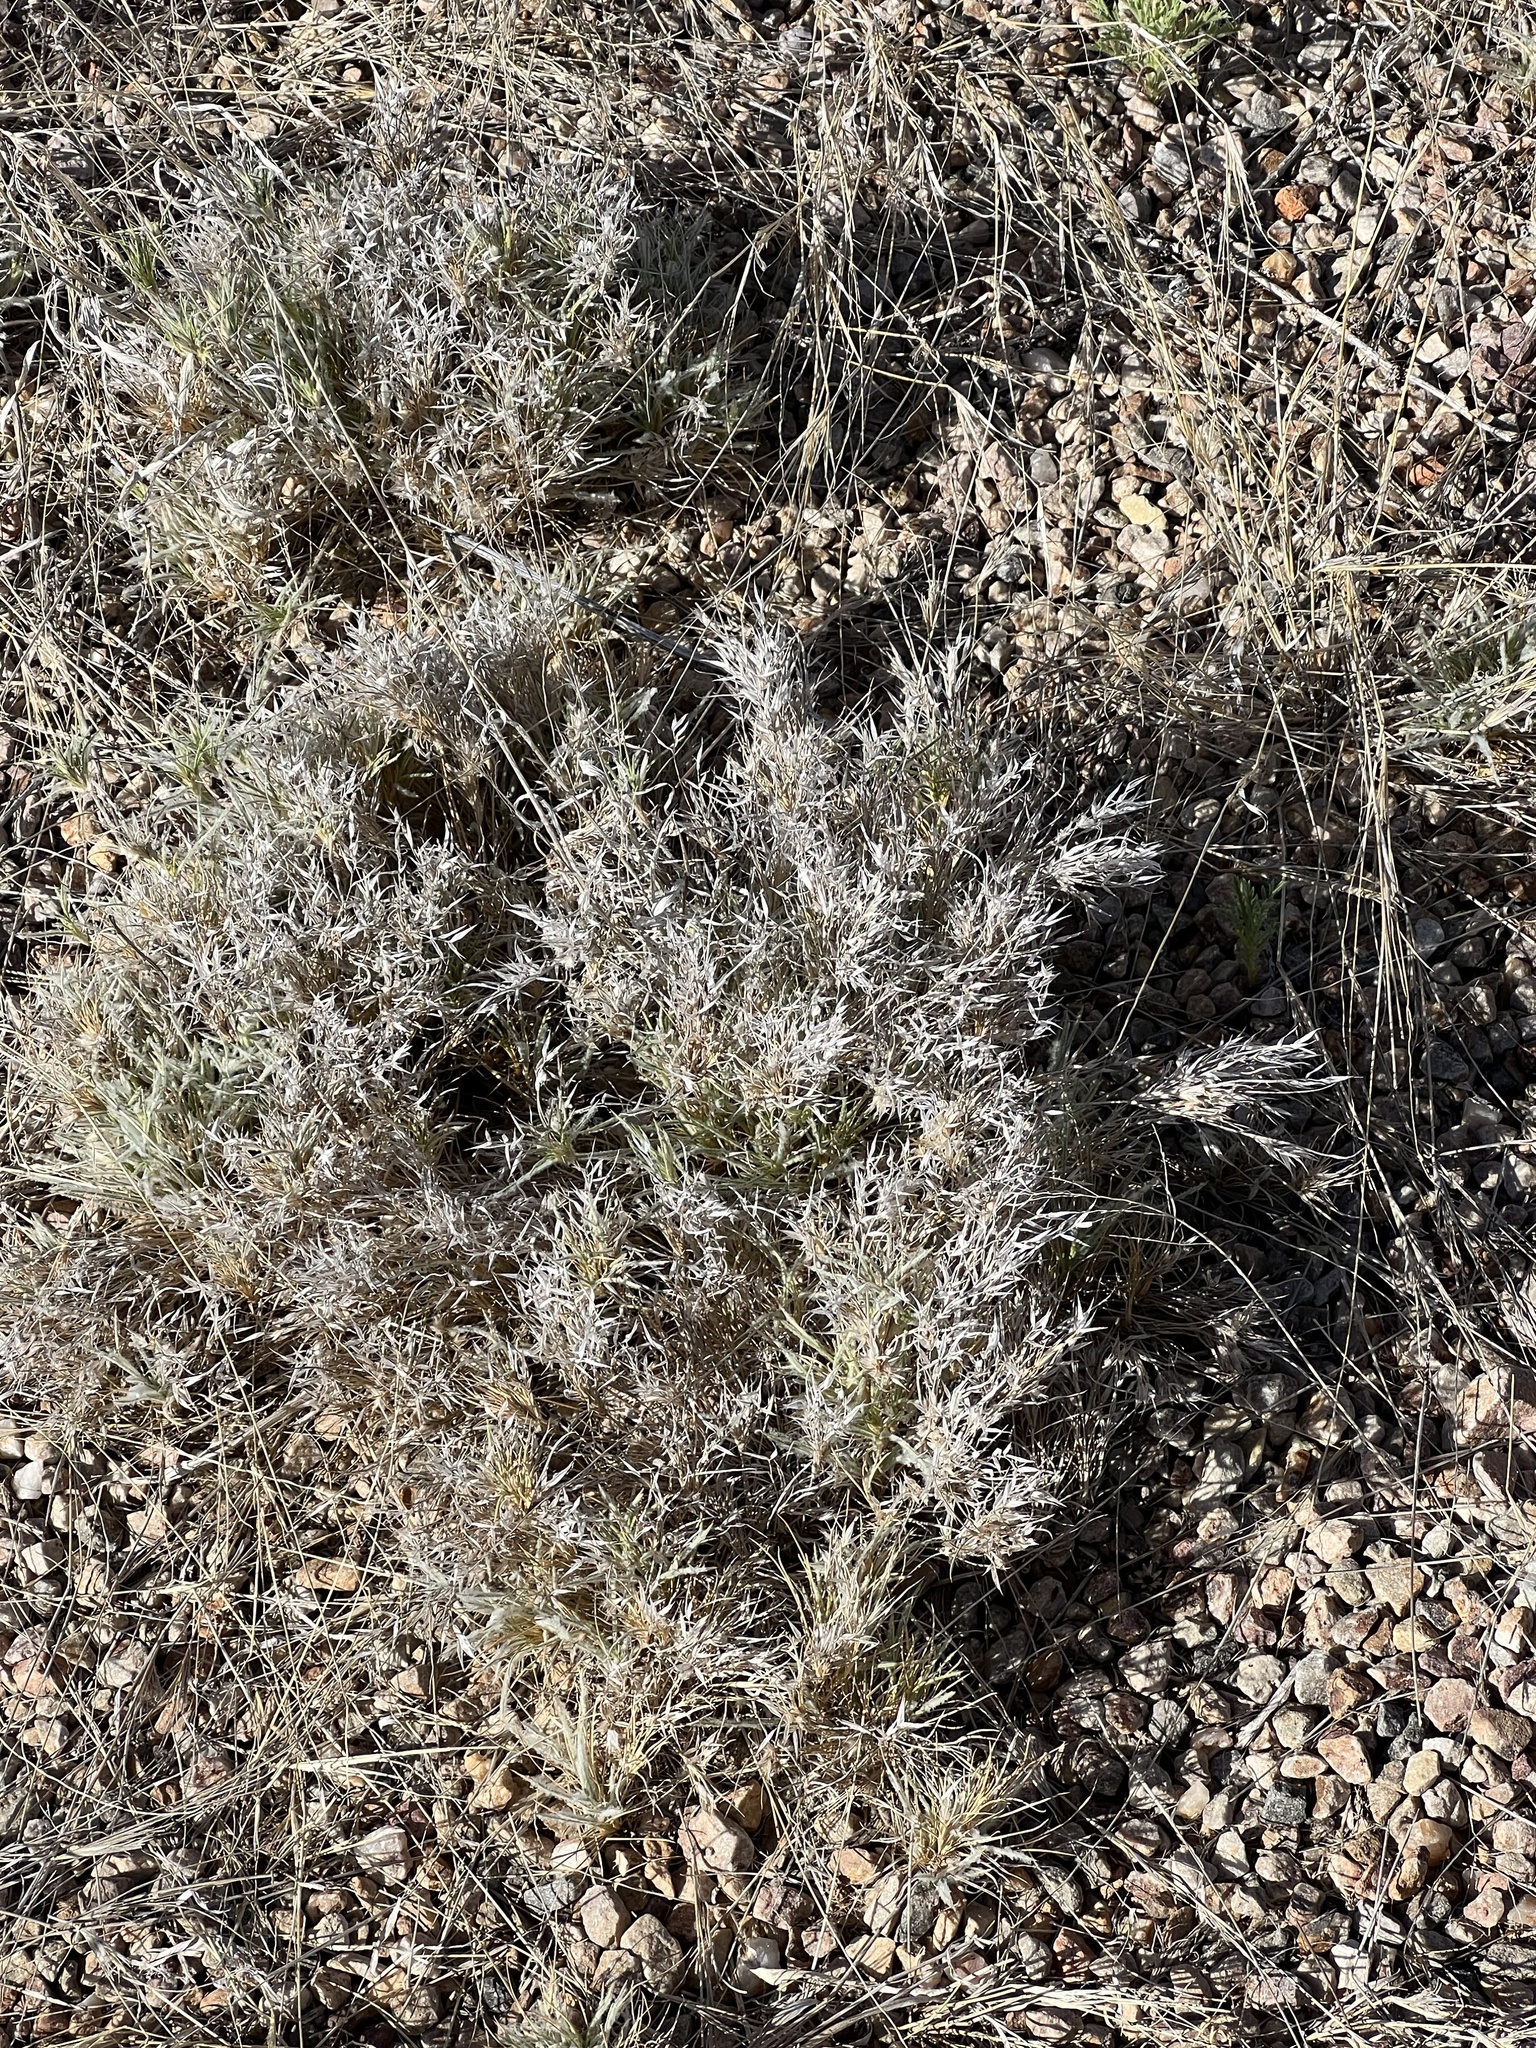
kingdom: Plantae
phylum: Tracheophyta
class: Liliopsida
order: Poales
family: Poaceae
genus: Dasyochloa
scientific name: Dasyochloa pulchella
